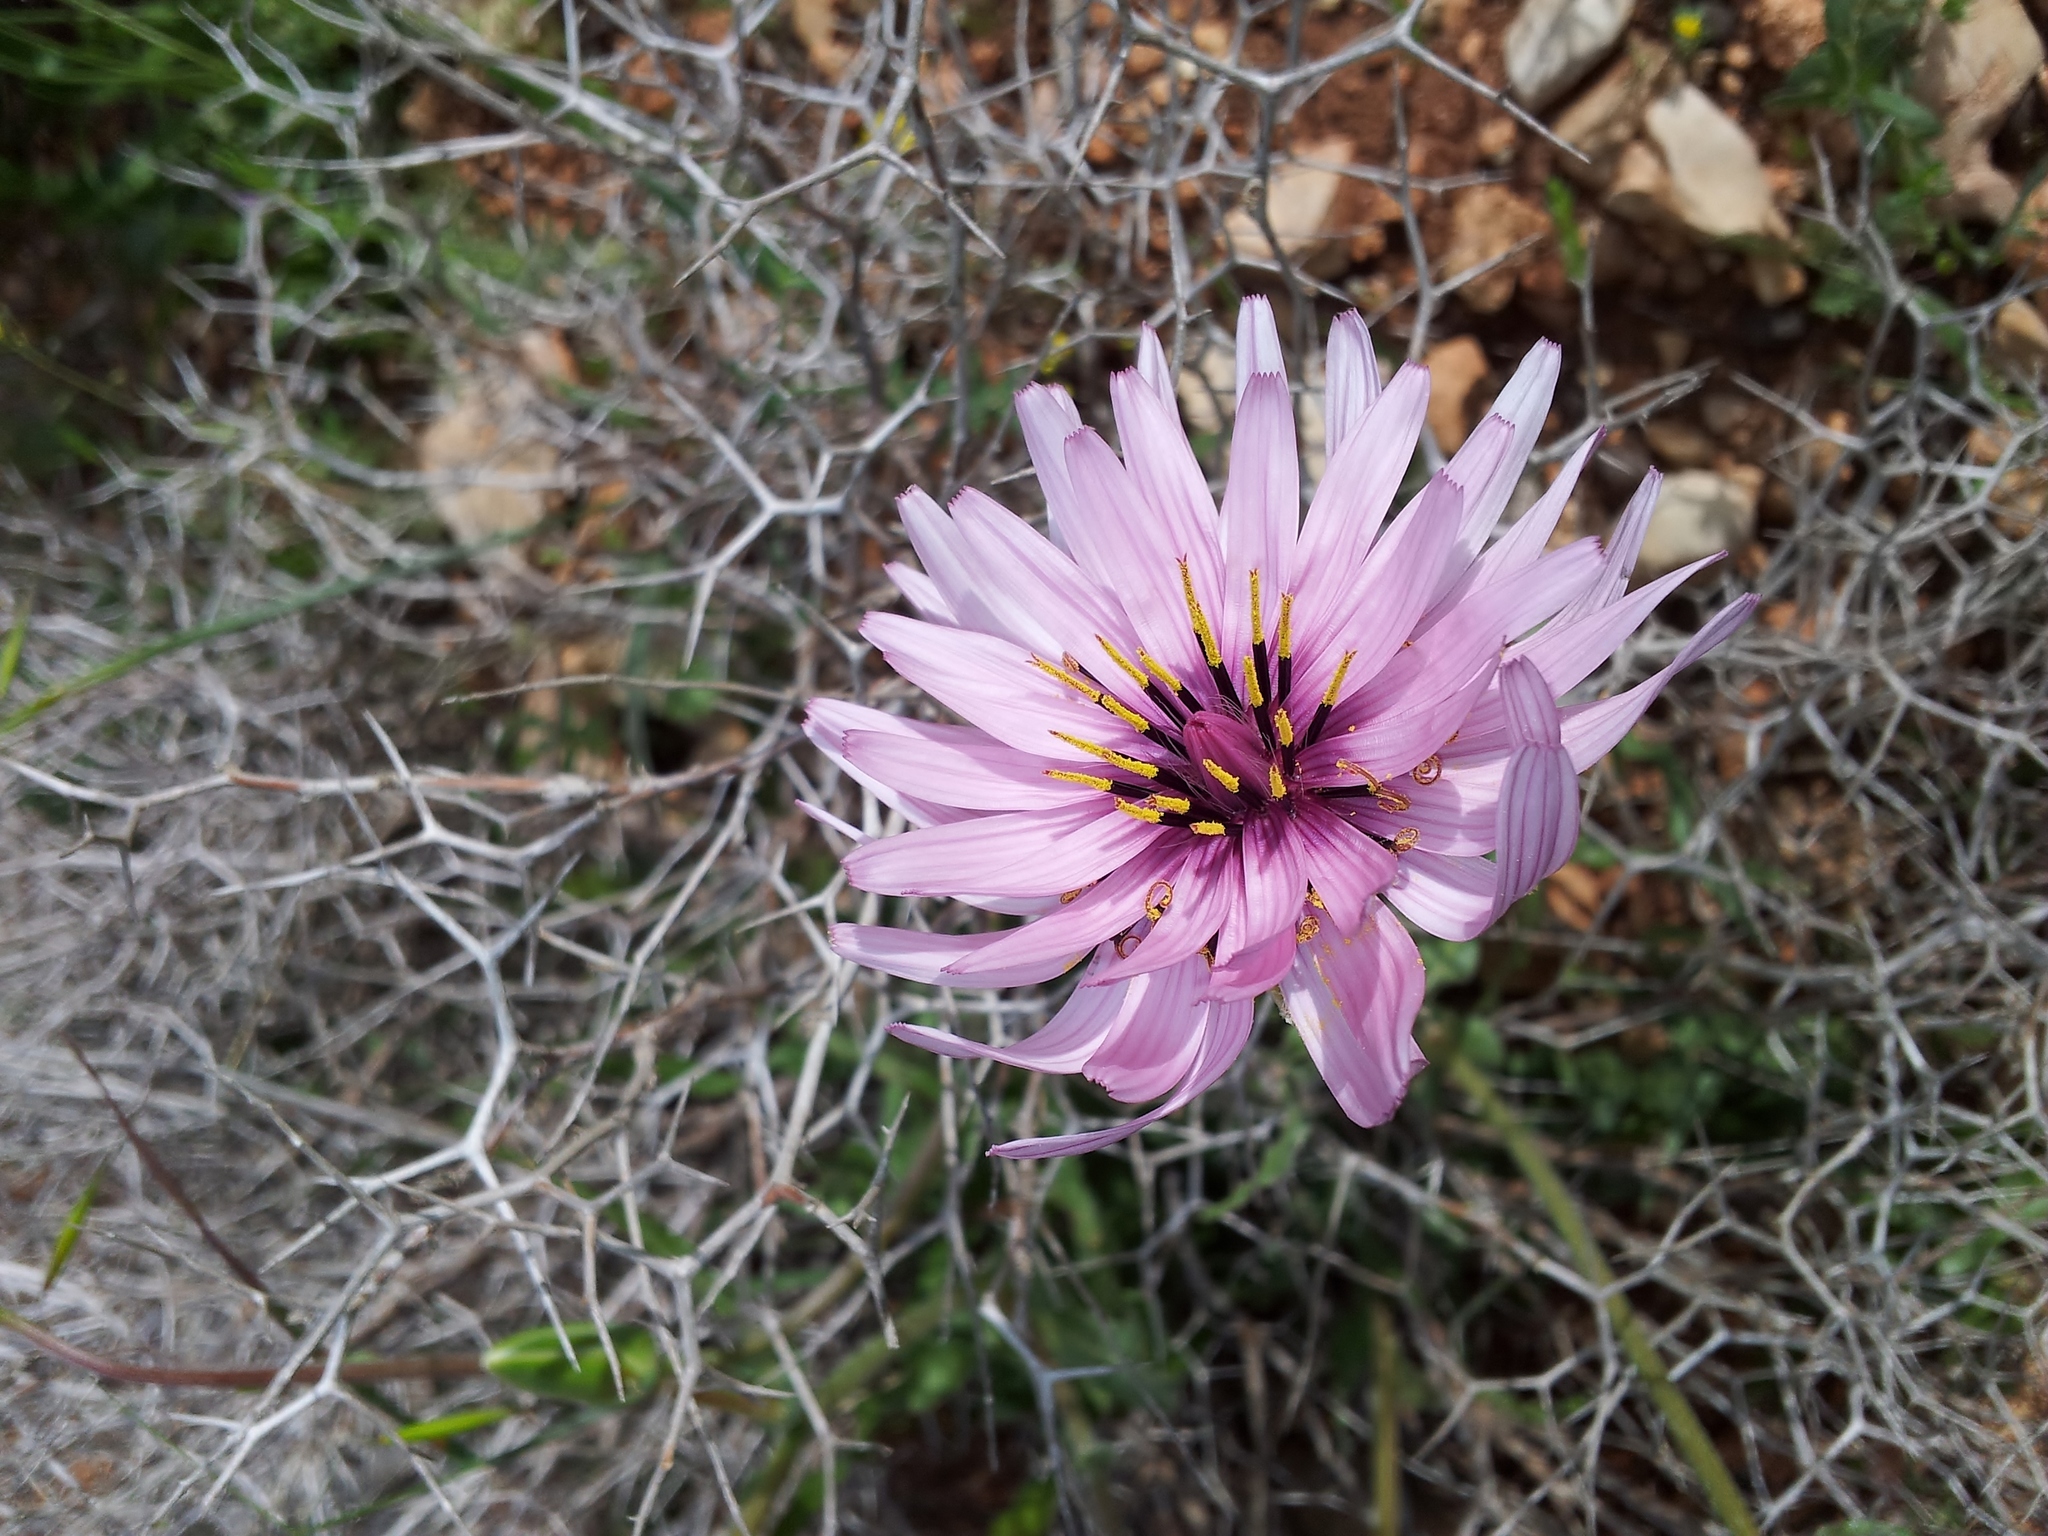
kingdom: Plantae
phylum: Tracheophyta
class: Magnoliopsida
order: Asterales
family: Asteraceae
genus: Pseudopodospermum
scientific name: Pseudopodospermum papposum
